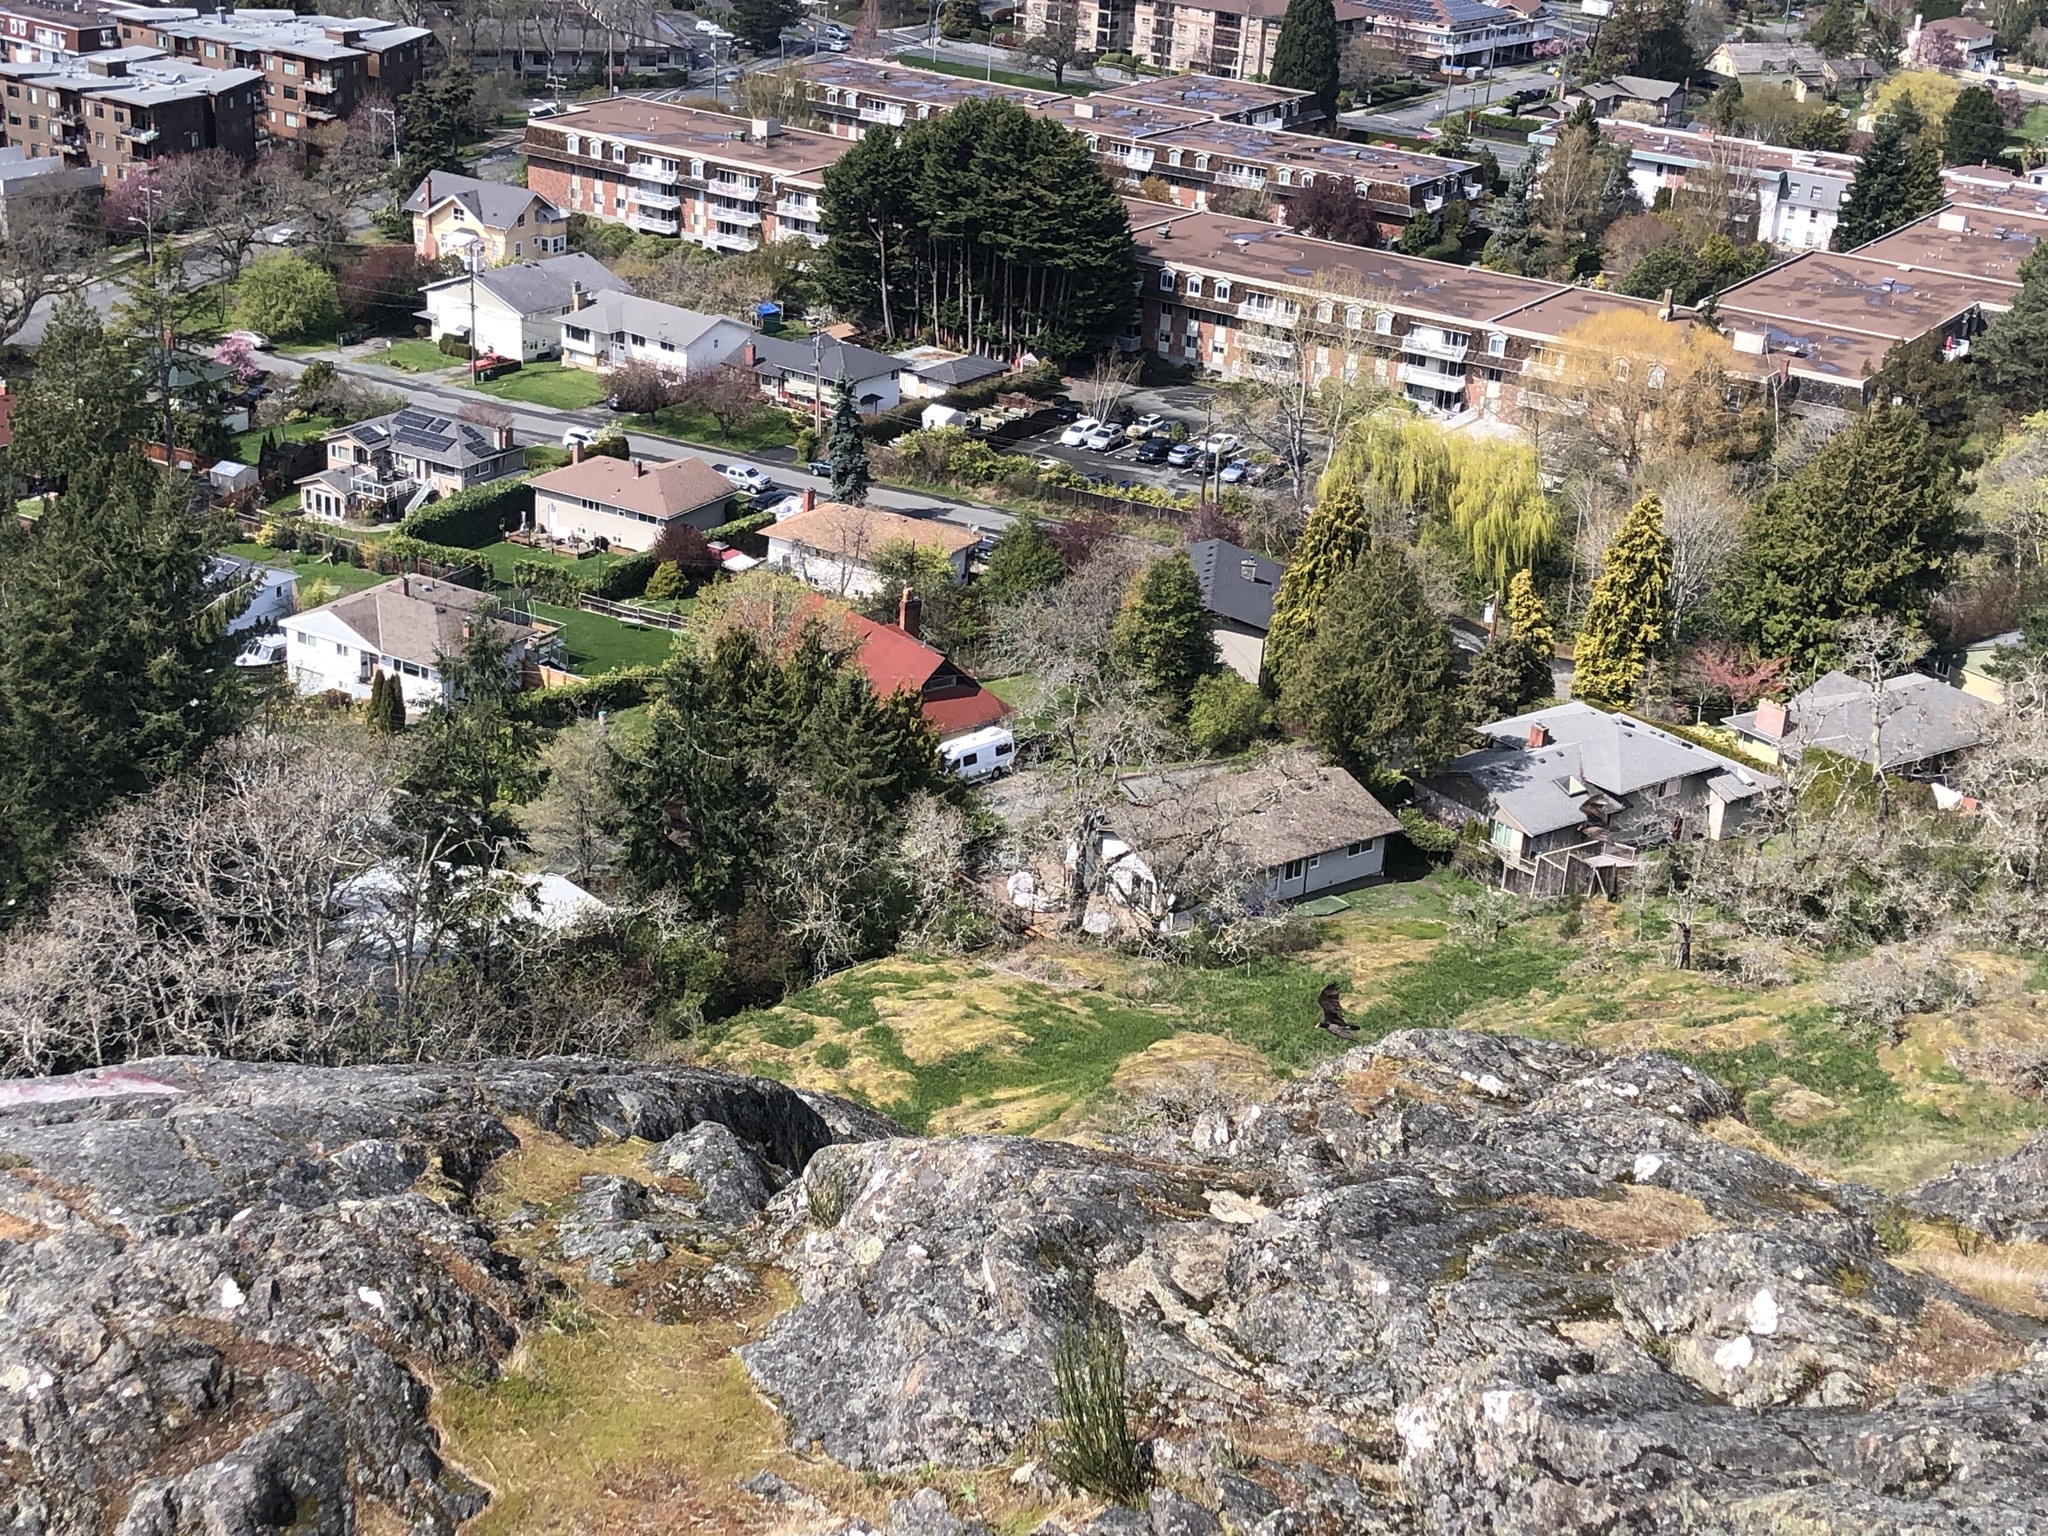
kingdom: Animalia
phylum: Chordata
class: Aves
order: Accipitriformes
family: Cathartidae
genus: Cathartes
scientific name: Cathartes aura
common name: Turkey vulture
